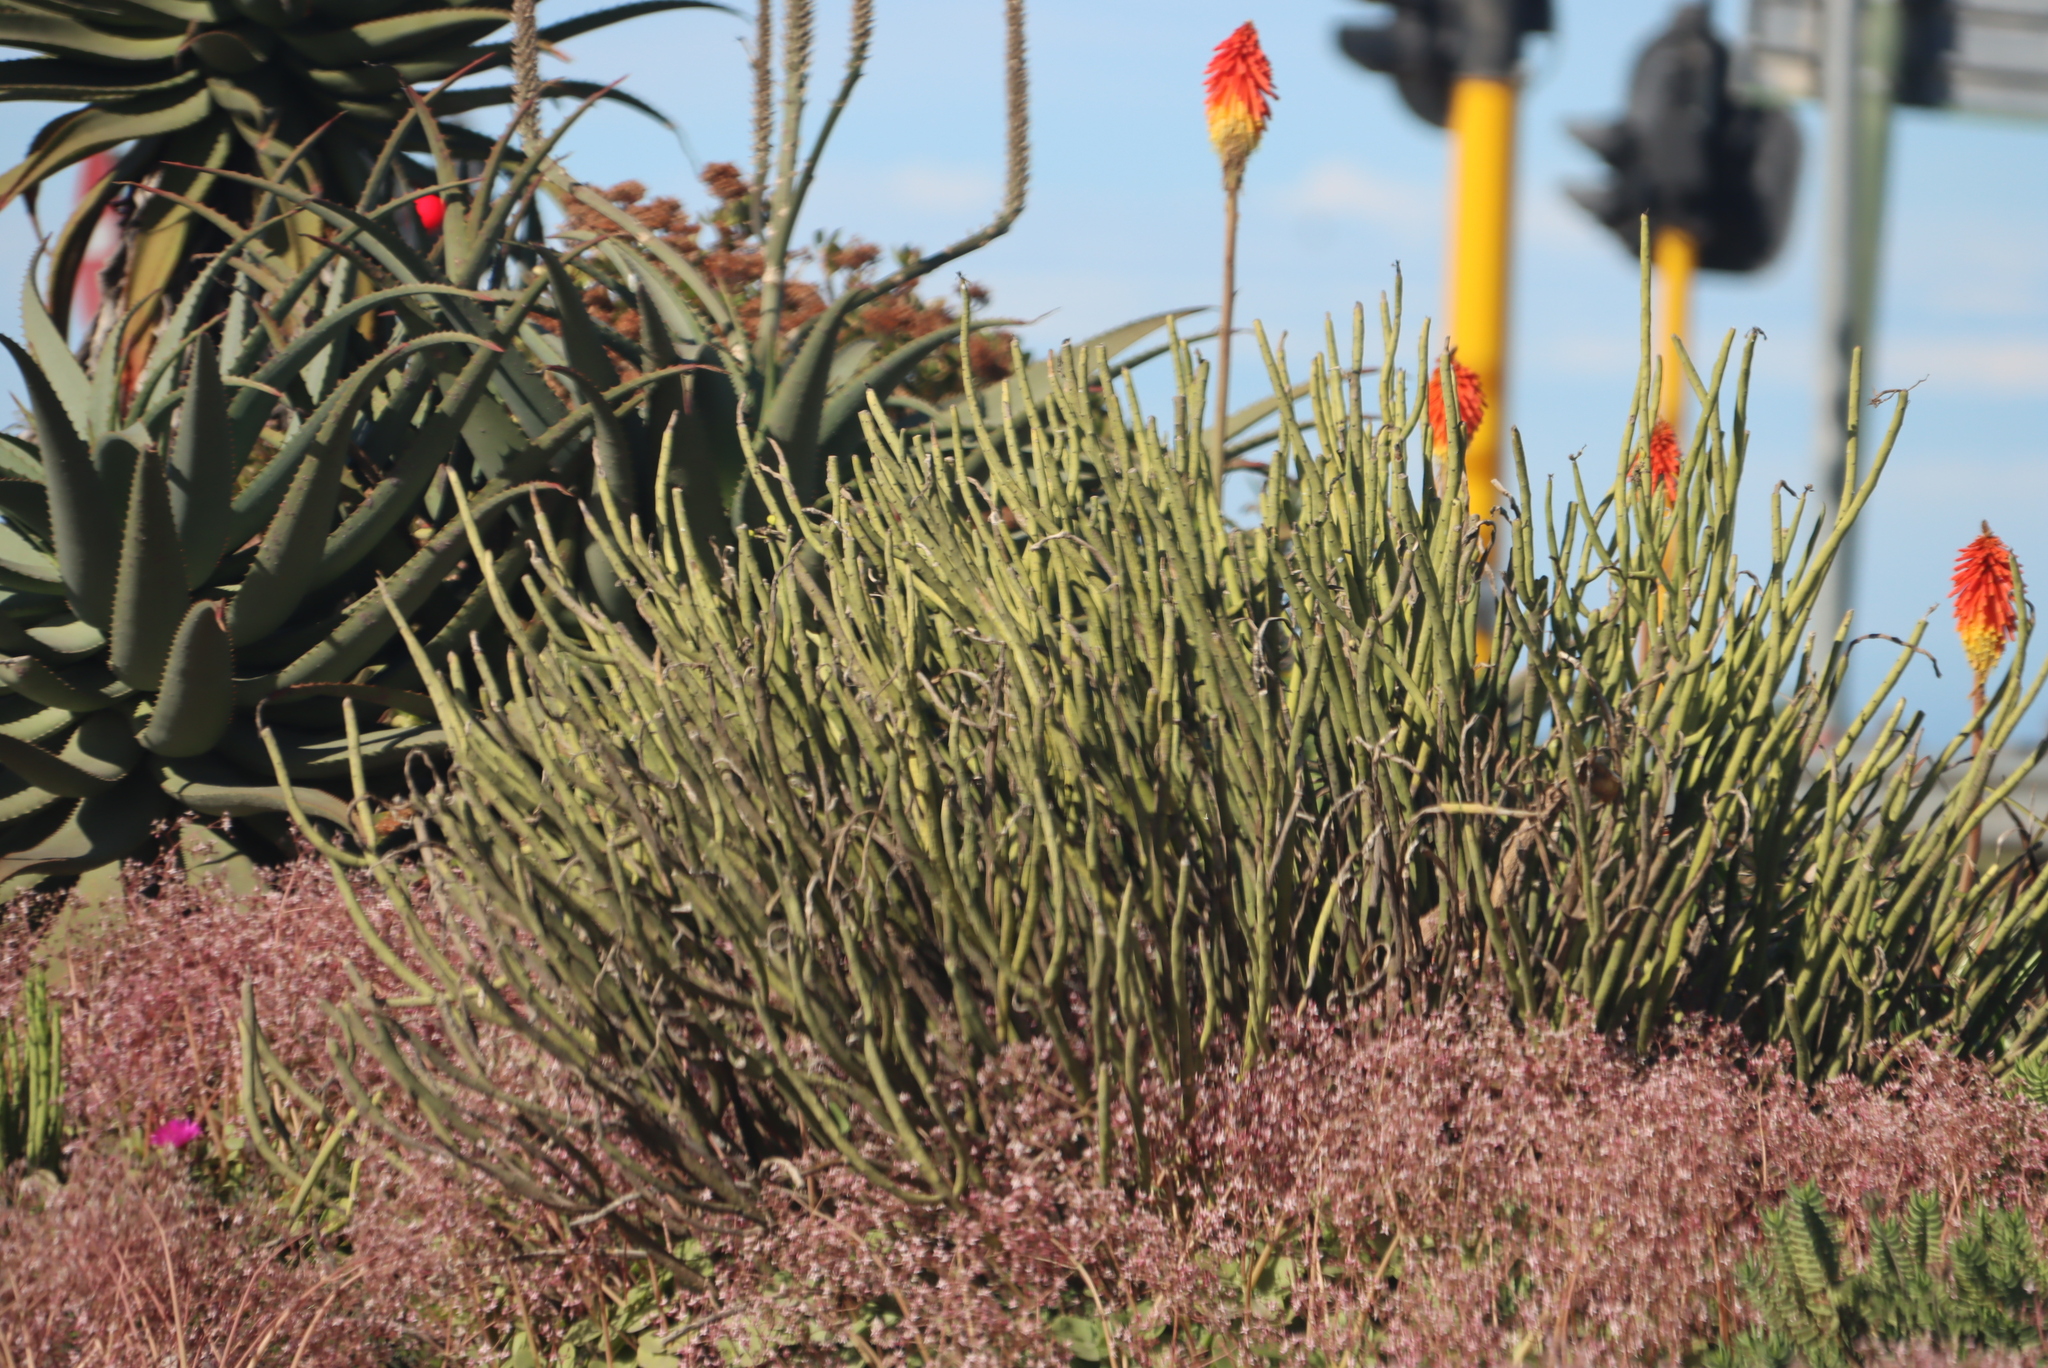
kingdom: Plantae
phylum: Tracheophyta
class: Magnoliopsida
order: Malpighiales
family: Euphorbiaceae
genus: Euphorbia
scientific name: Euphorbia mauritanica
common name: Jackal's-food
